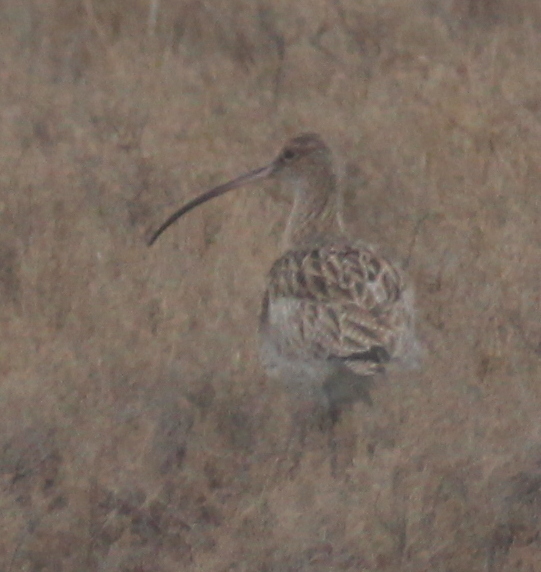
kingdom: Animalia
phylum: Chordata
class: Aves
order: Charadriiformes
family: Scolopacidae
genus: Numenius
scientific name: Numenius arquata
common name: Eurasian curlew
